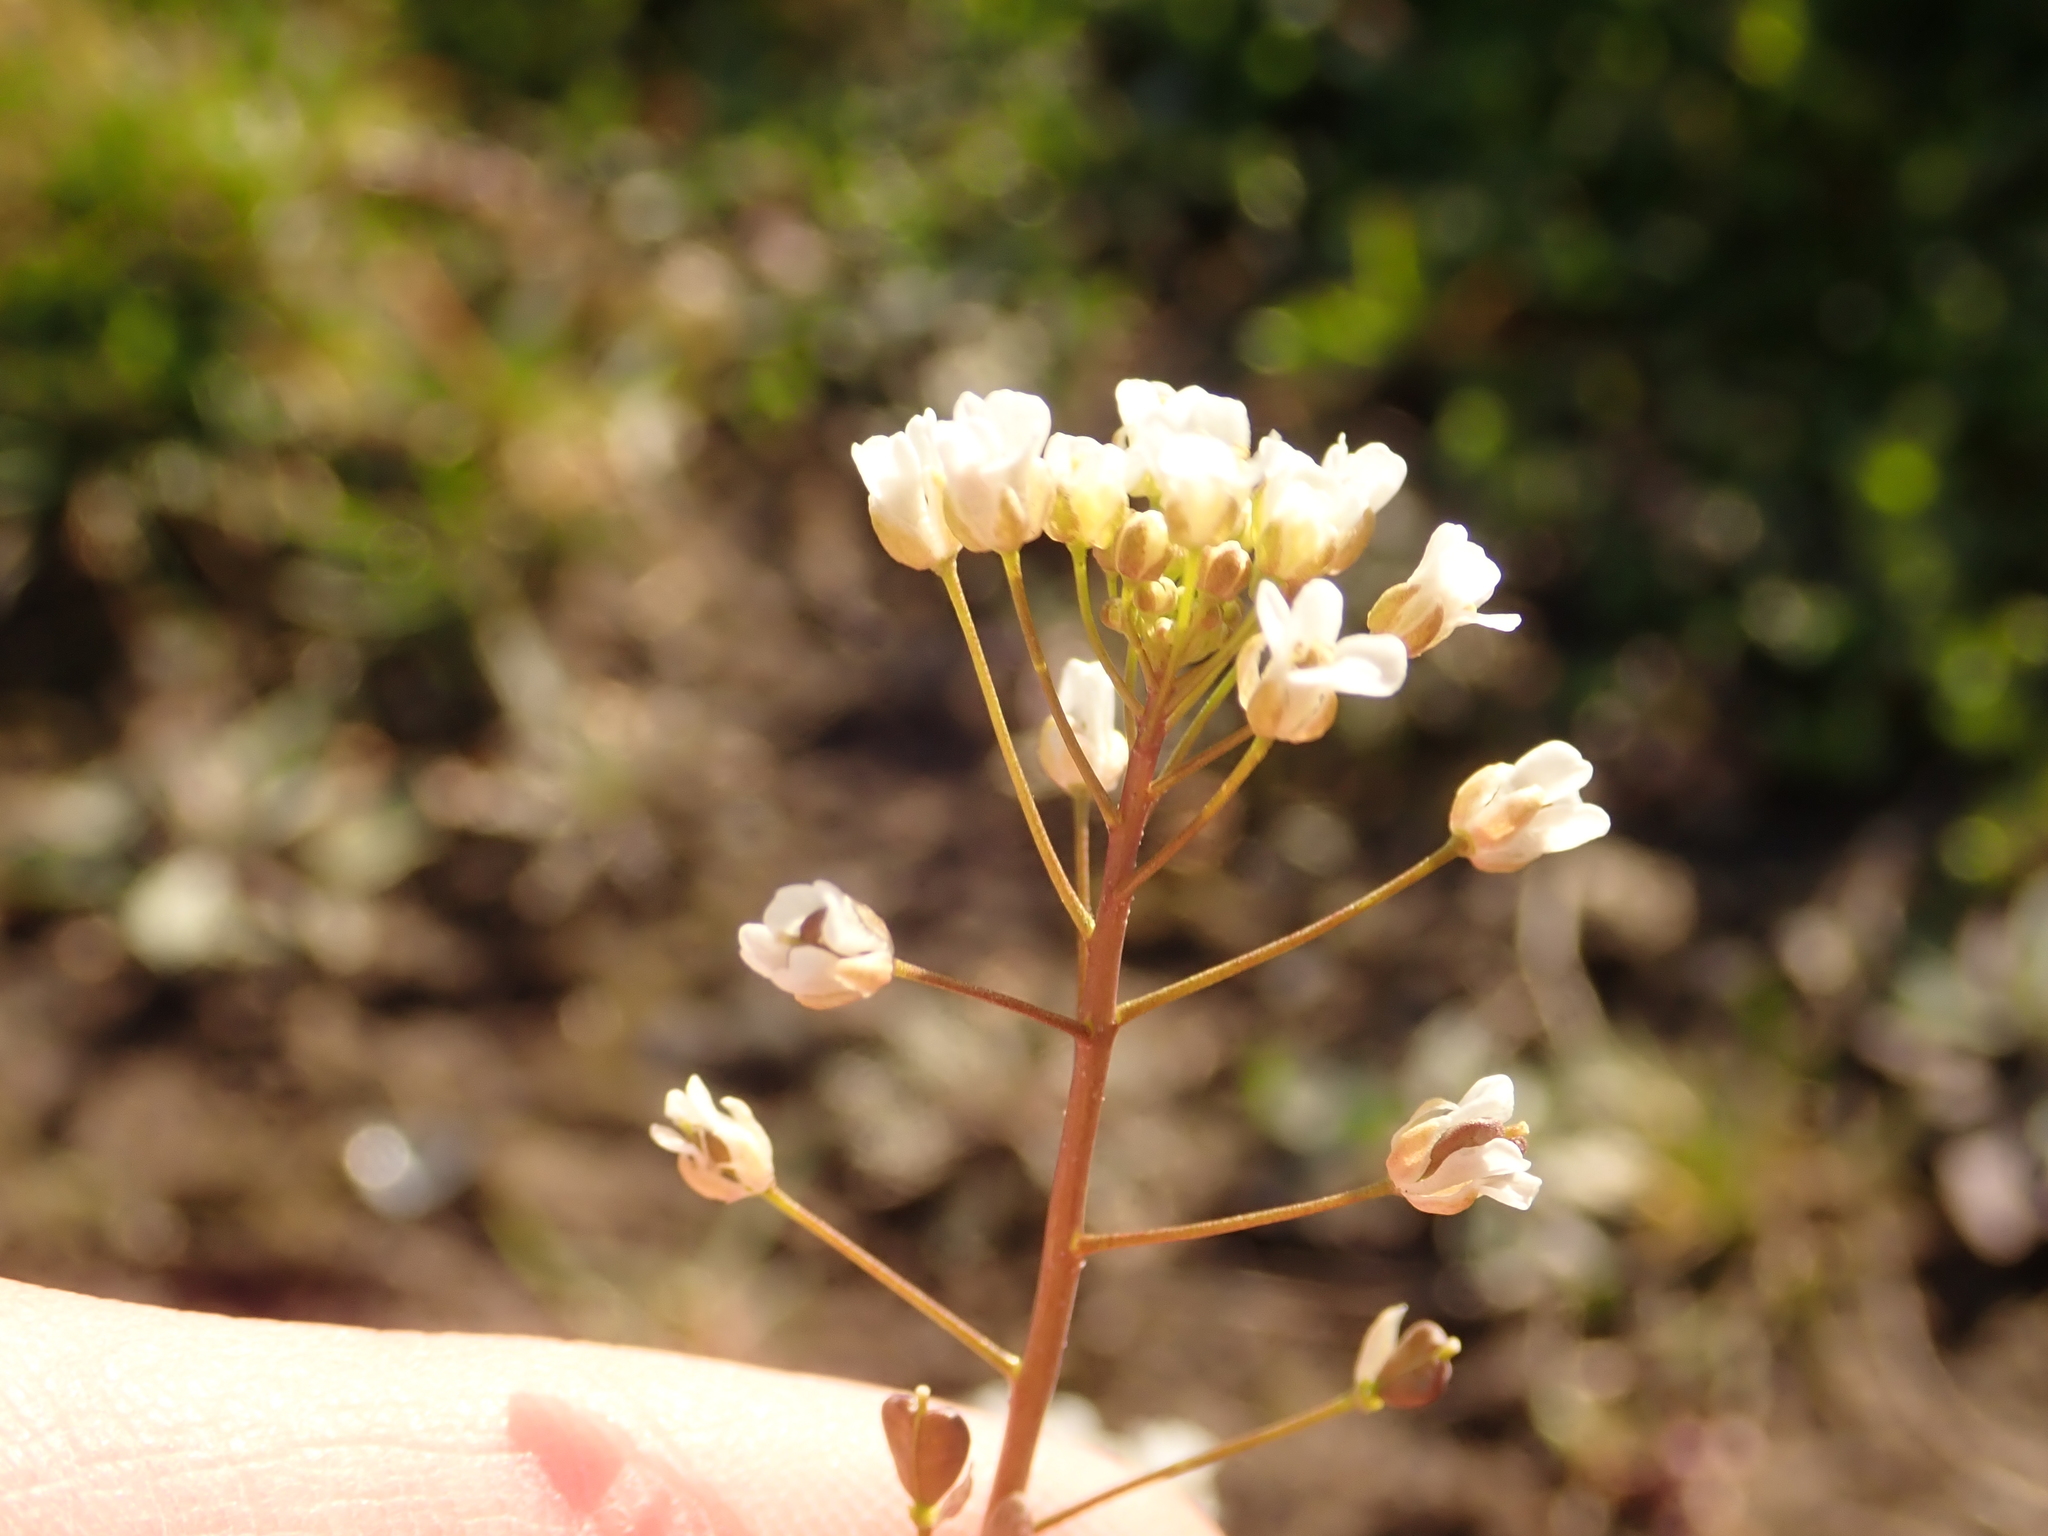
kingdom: Plantae
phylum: Tracheophyta
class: Magnoliopsida
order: Brassicales
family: Brassicaceae
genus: Capsella
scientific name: Capsella bursa-pastoris
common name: Shepherd's purse
